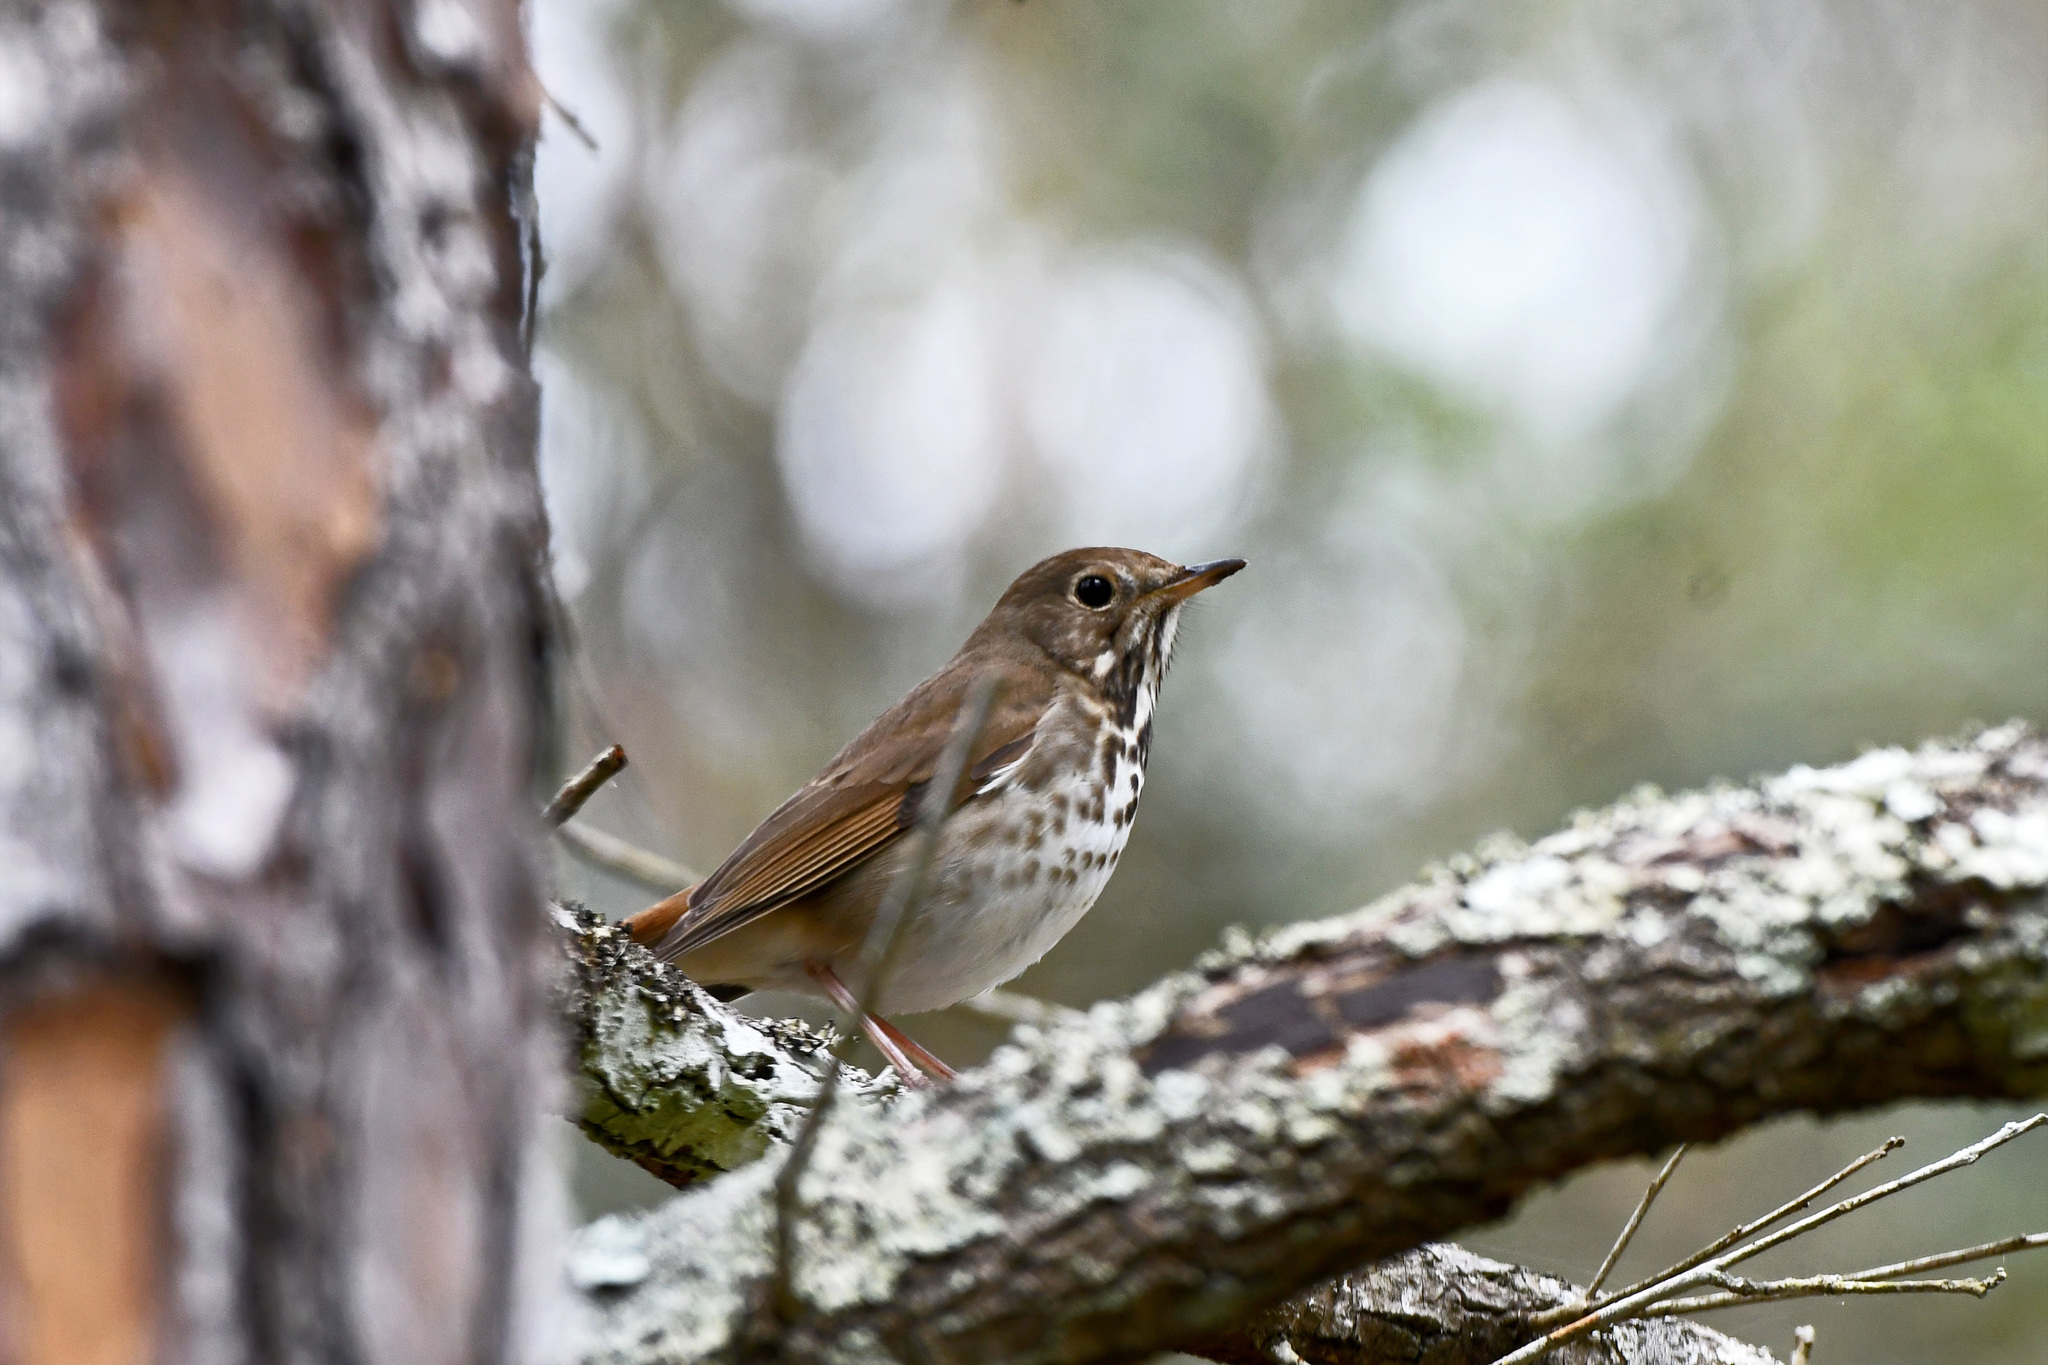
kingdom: Animalia
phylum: Chordata
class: Aves
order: Passeriformes
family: Turdidae
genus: Catharus
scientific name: Catharus guttatus
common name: Hermit thrush
